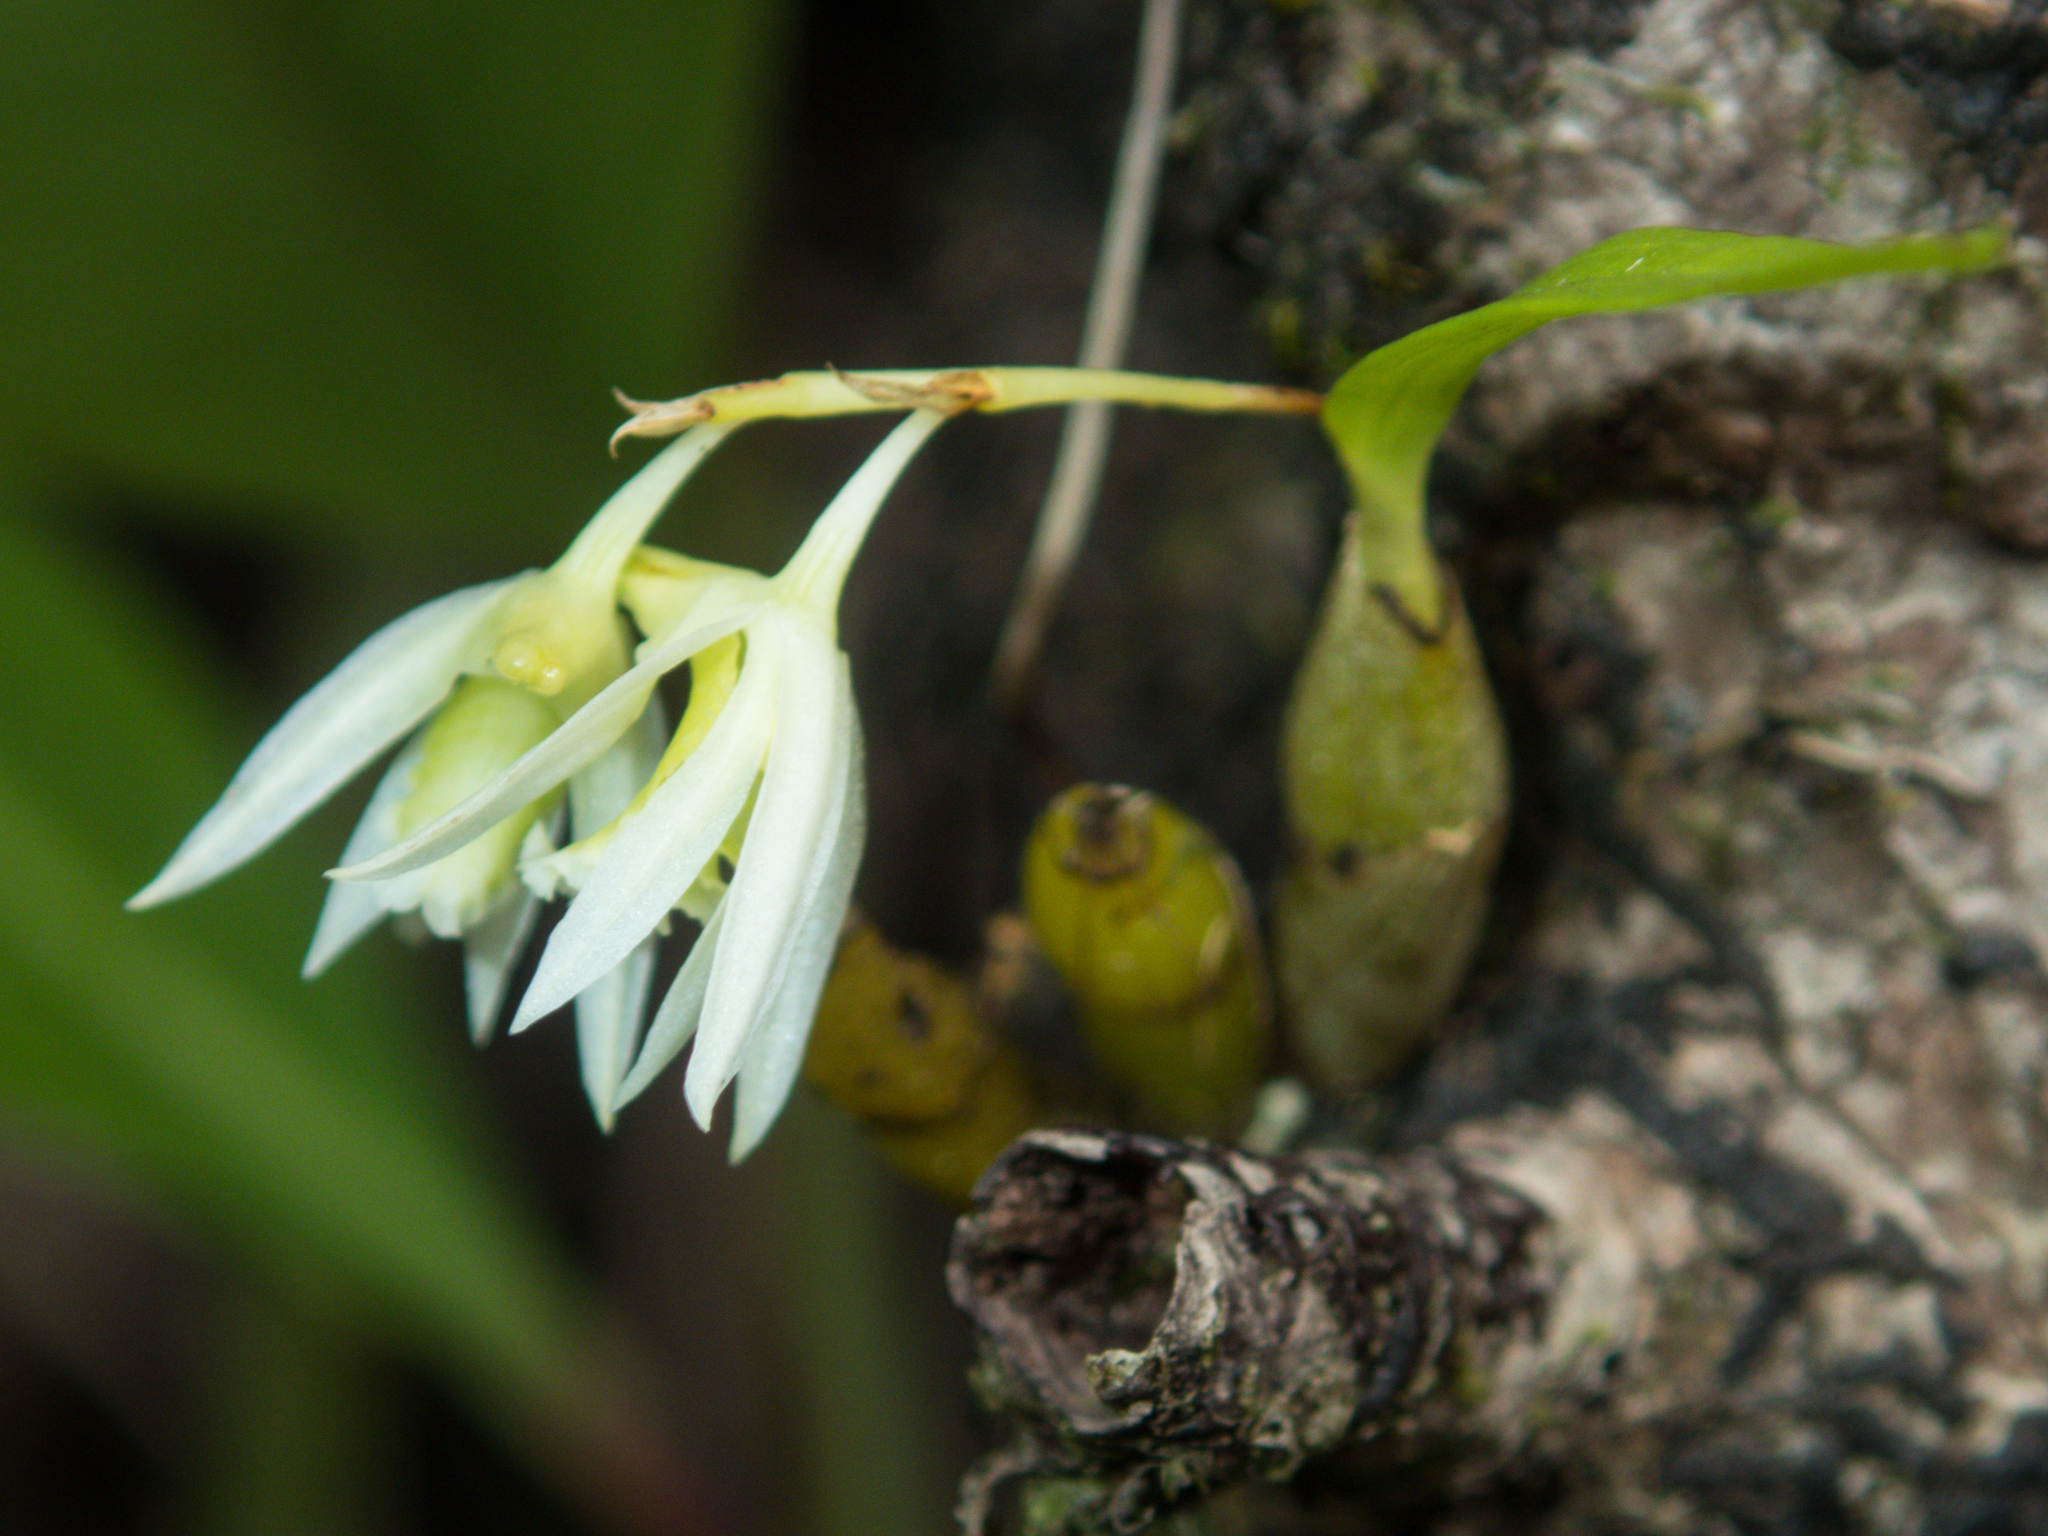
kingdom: Plantae
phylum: Tracheophyta
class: Liliopsida
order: Asparagales
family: Orchidaceae
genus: Dendrobium
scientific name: Dendrobium kratense
